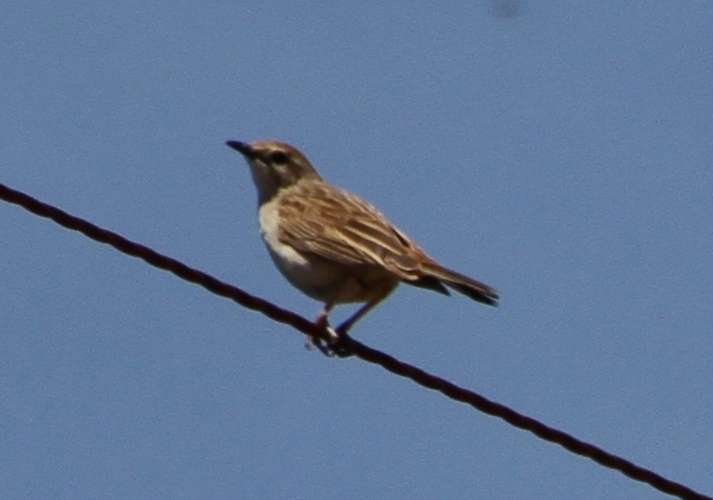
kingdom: Animalia
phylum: Chordata
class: Aves
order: Passeriformes
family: Locustellidae
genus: Megalurus
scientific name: Megalurus mathewsi
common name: Rufous songlark
